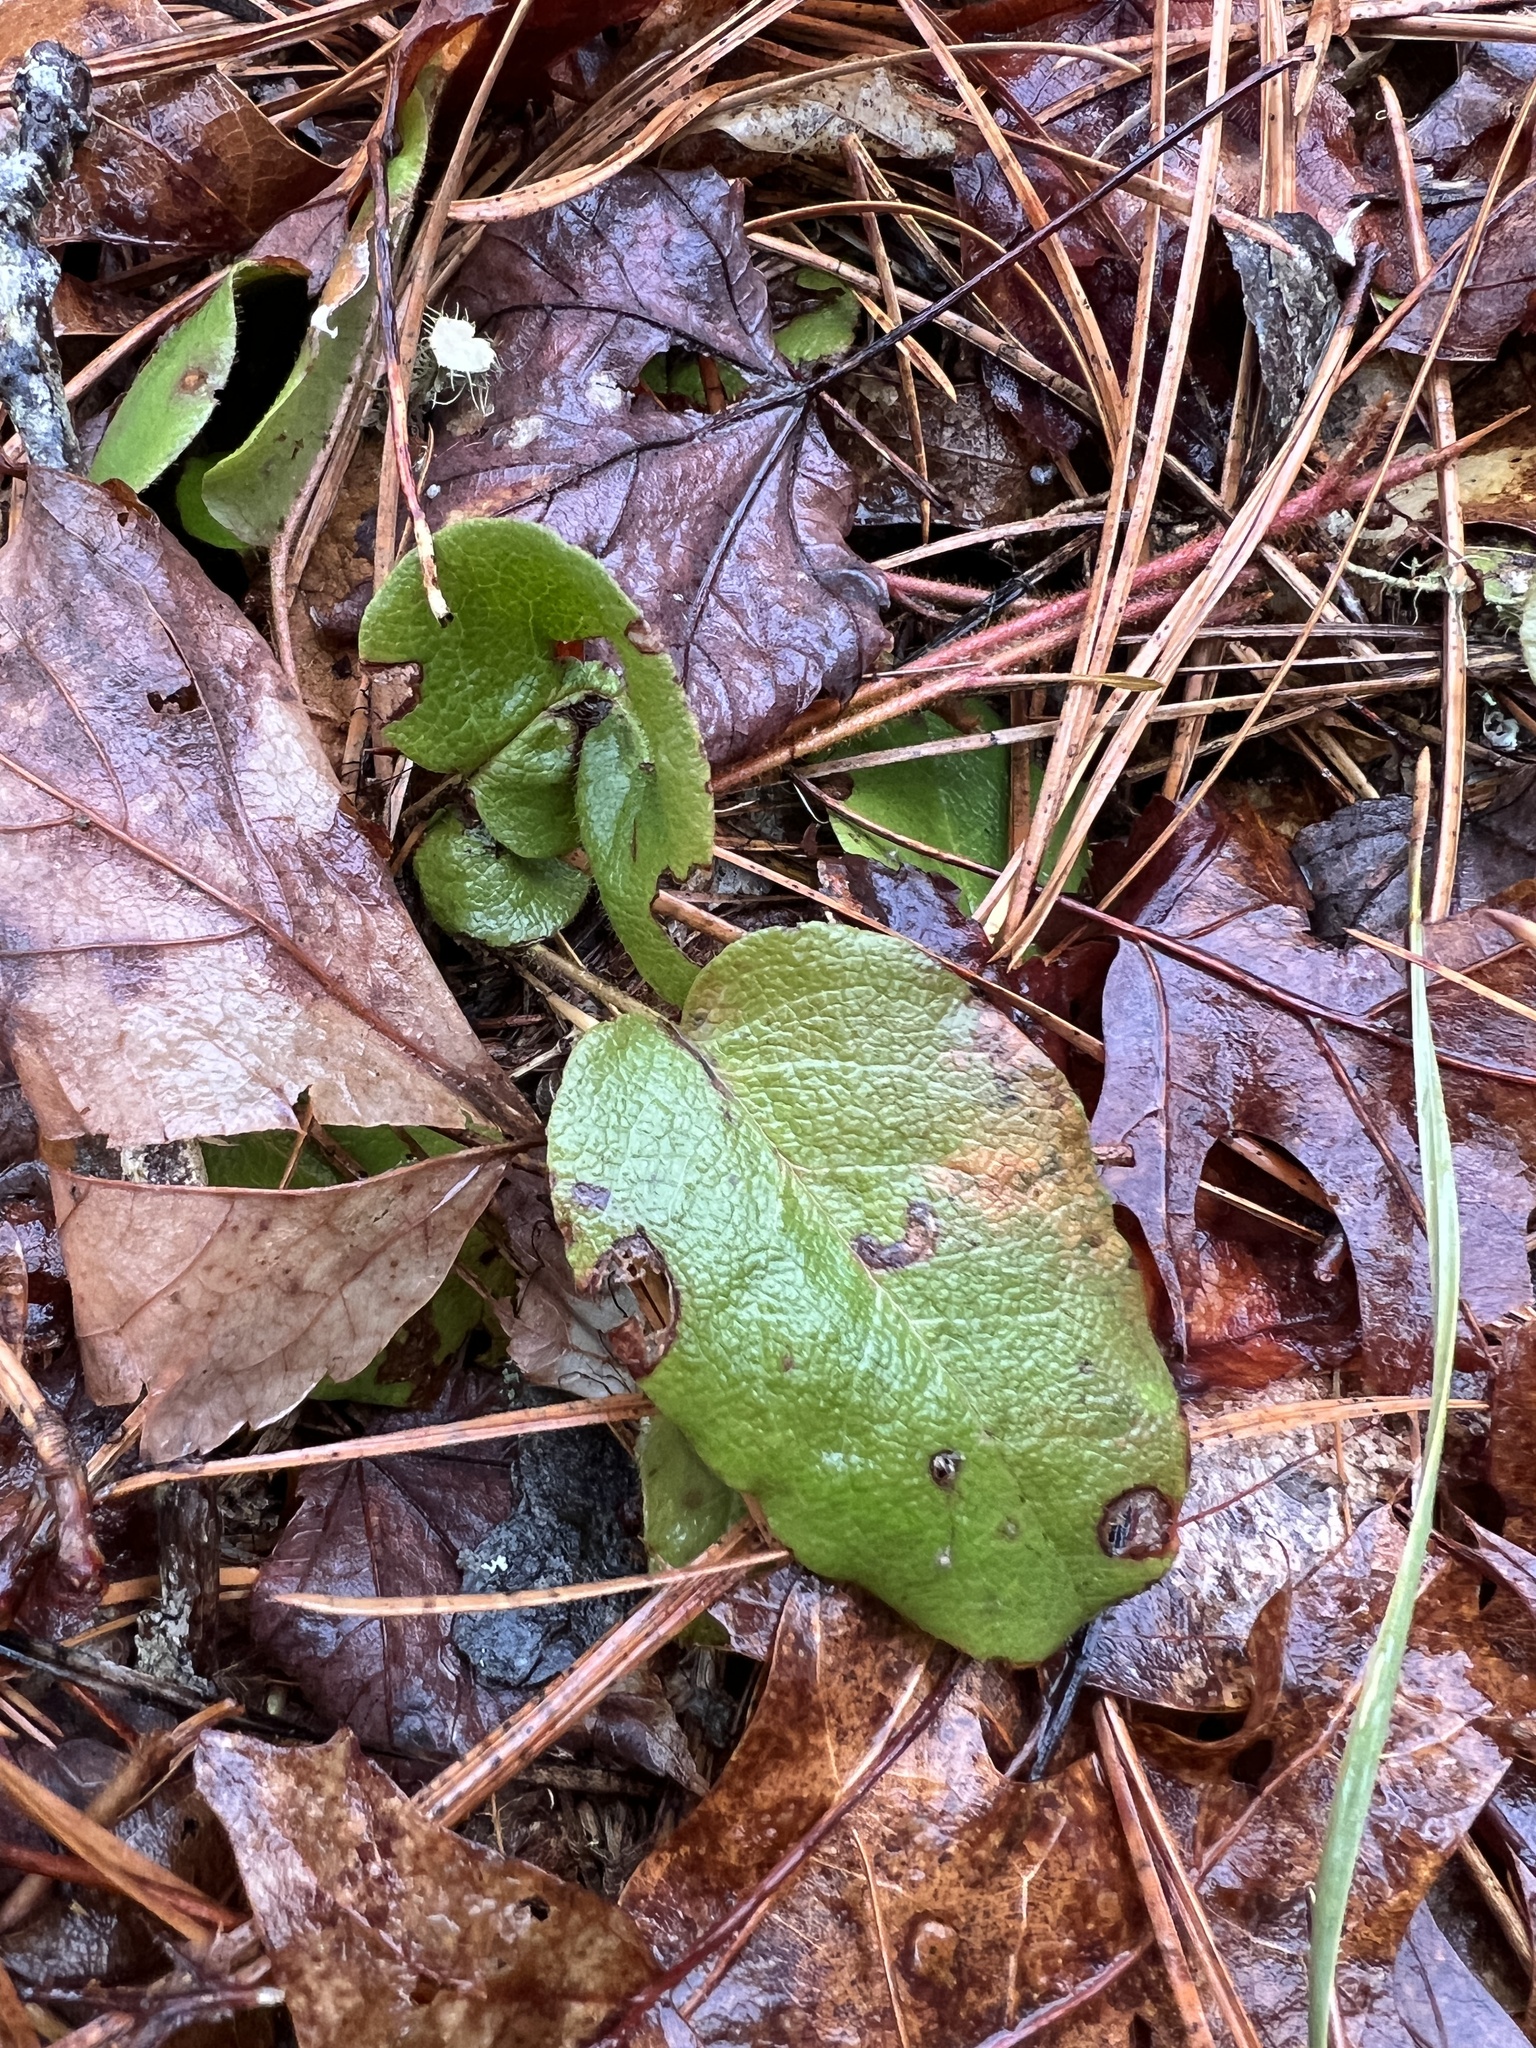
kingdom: Plantae
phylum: Tracheophyta
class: Magnoliopsida
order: Ericales
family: Ericaceae
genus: Epigaea
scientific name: Epigaea repens
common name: Gravelroot
